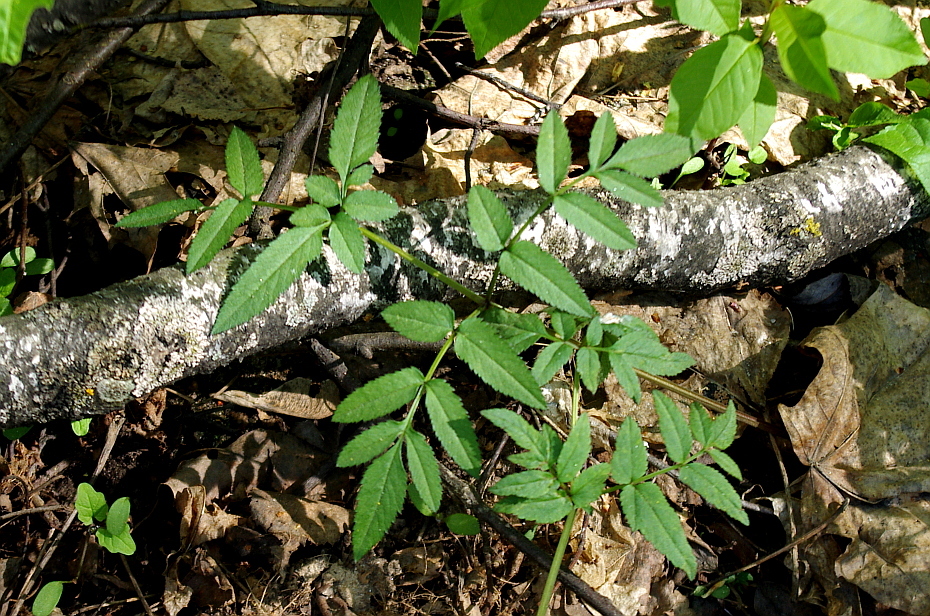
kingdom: Plantae
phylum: Tracheophyta
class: Magnoliopsida
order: Apiales
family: Apiaceae
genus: Angelica
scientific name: Angelica sylvestris
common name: Wild angelica
